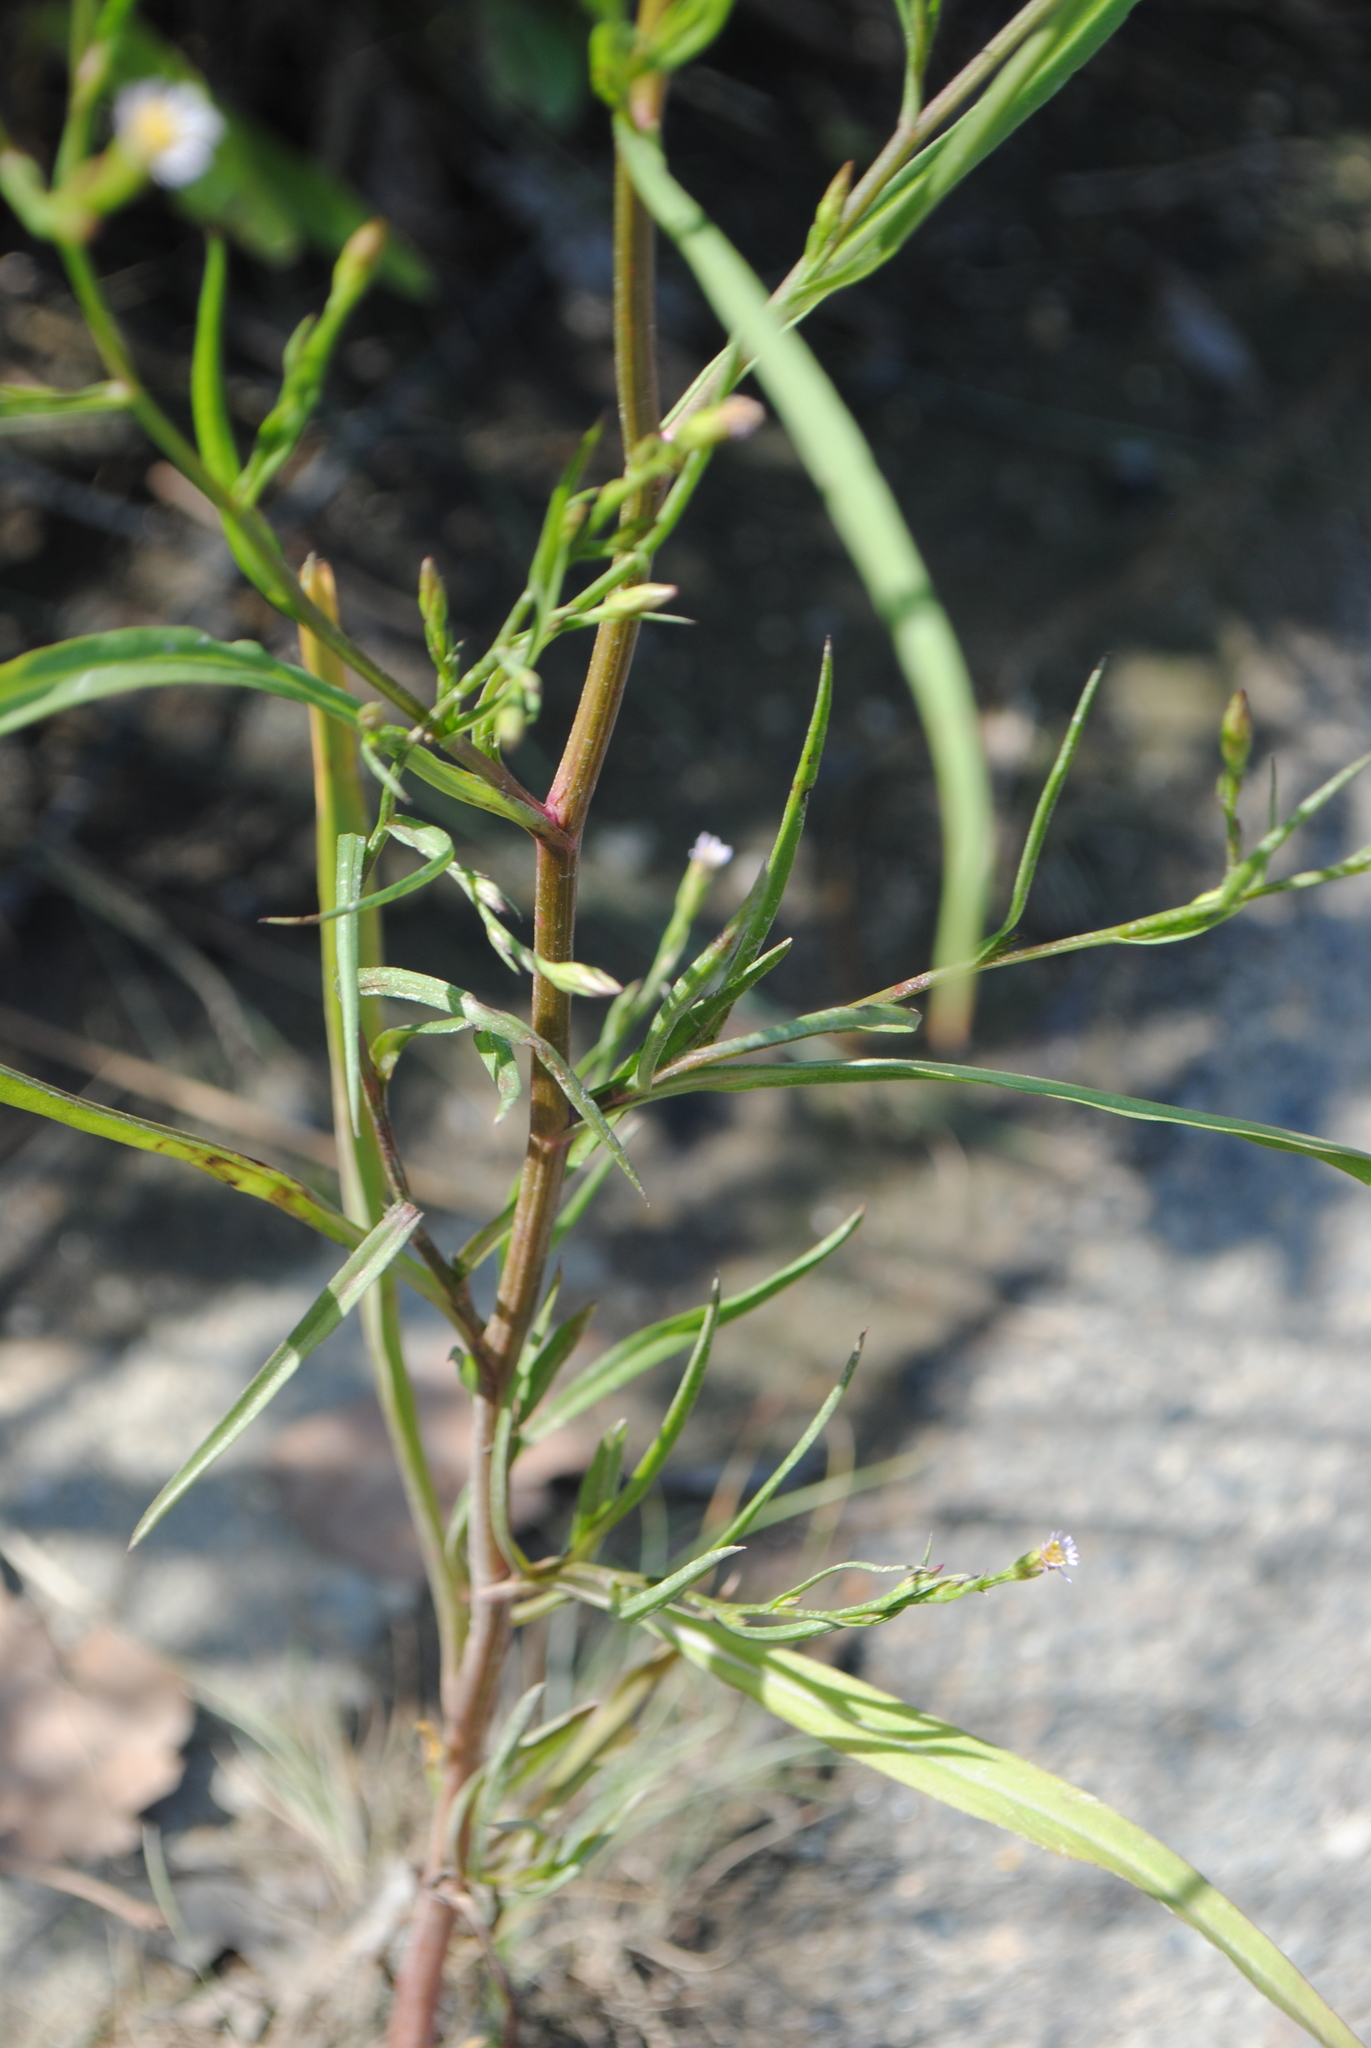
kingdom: Plantae
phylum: Tracheophyta
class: Magnoliopsida
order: Asterales
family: Asteraceae
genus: Symphyotrichum
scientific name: Symphyotrichum subulatum
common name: Annual saltmarsh aster
